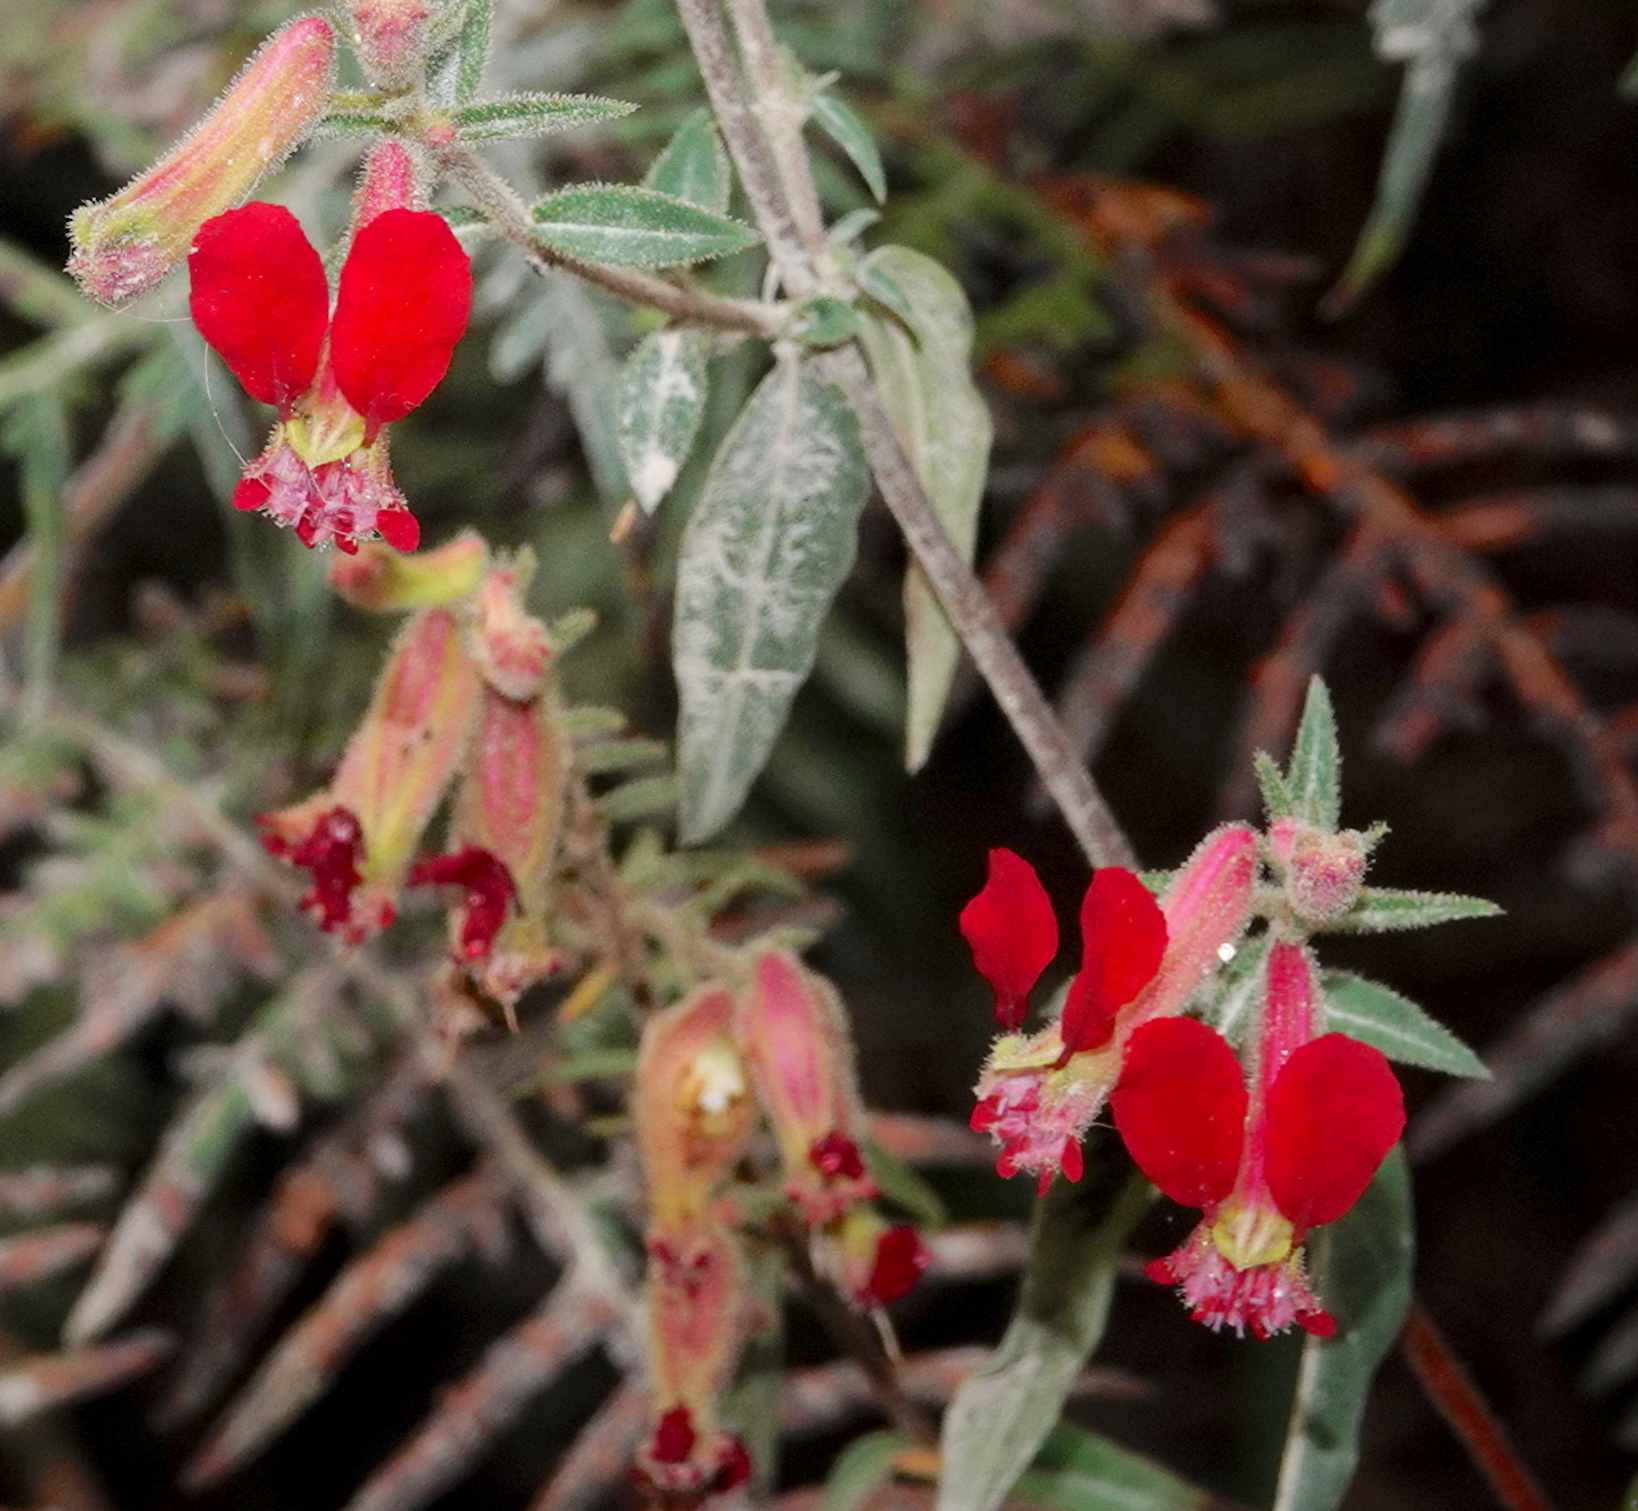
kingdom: Plantae
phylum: Tracheophyta
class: Magnoliopsida
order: Myrtales
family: Lythraceae
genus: Cuphea
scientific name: Cuphea hookeriana
